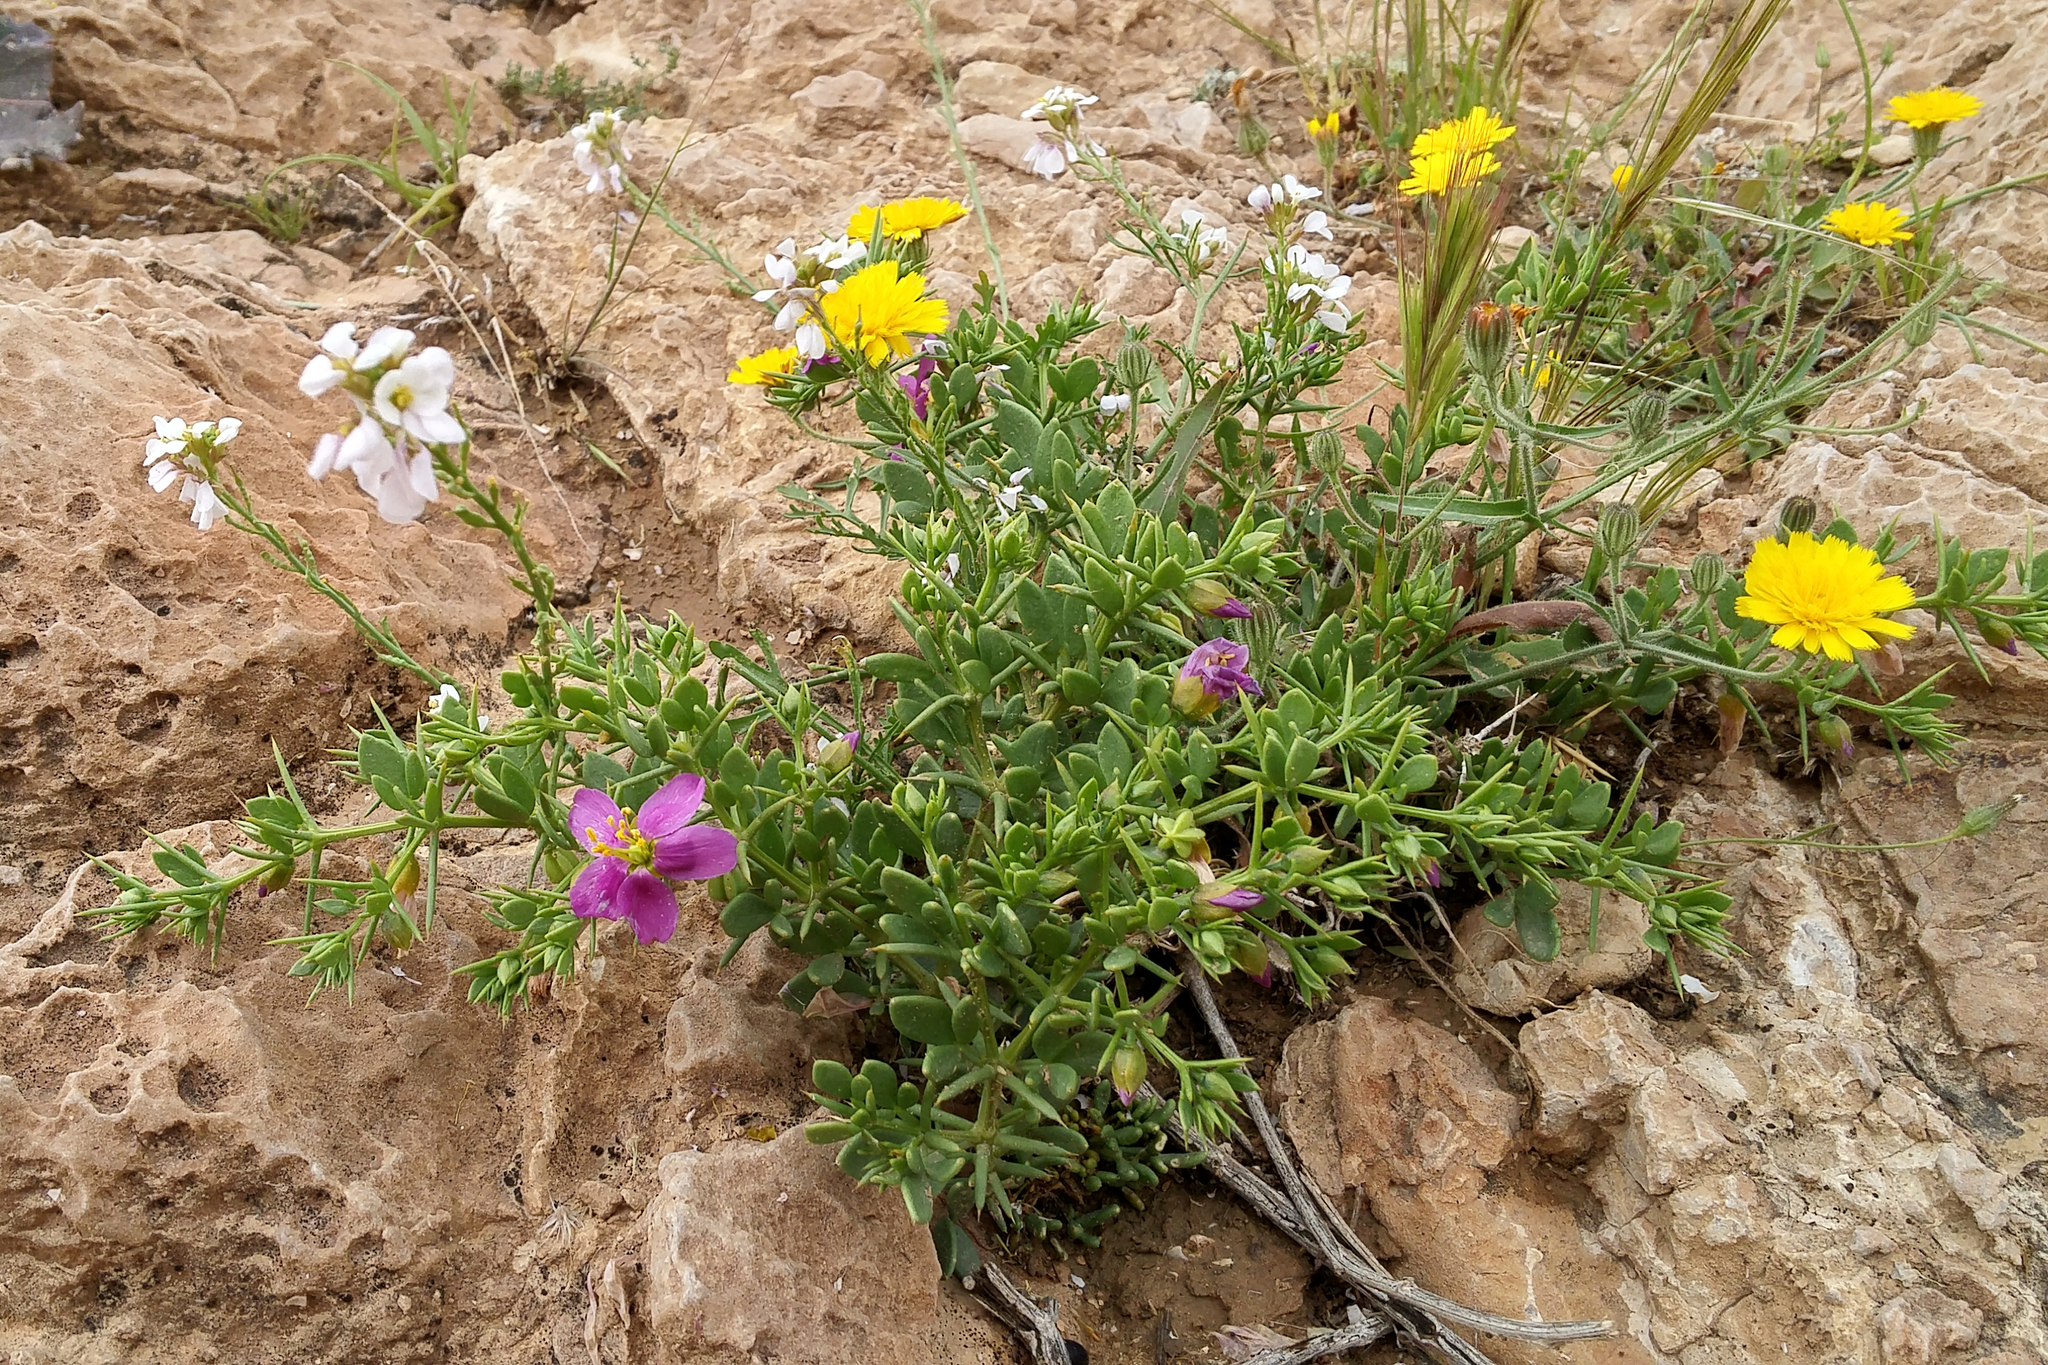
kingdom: Plantae
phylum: Tracheophyta
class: Magnoliopsida
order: Zygophyllales
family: Zygophyllaceae
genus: Fagonia
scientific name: Fagonia mollis
